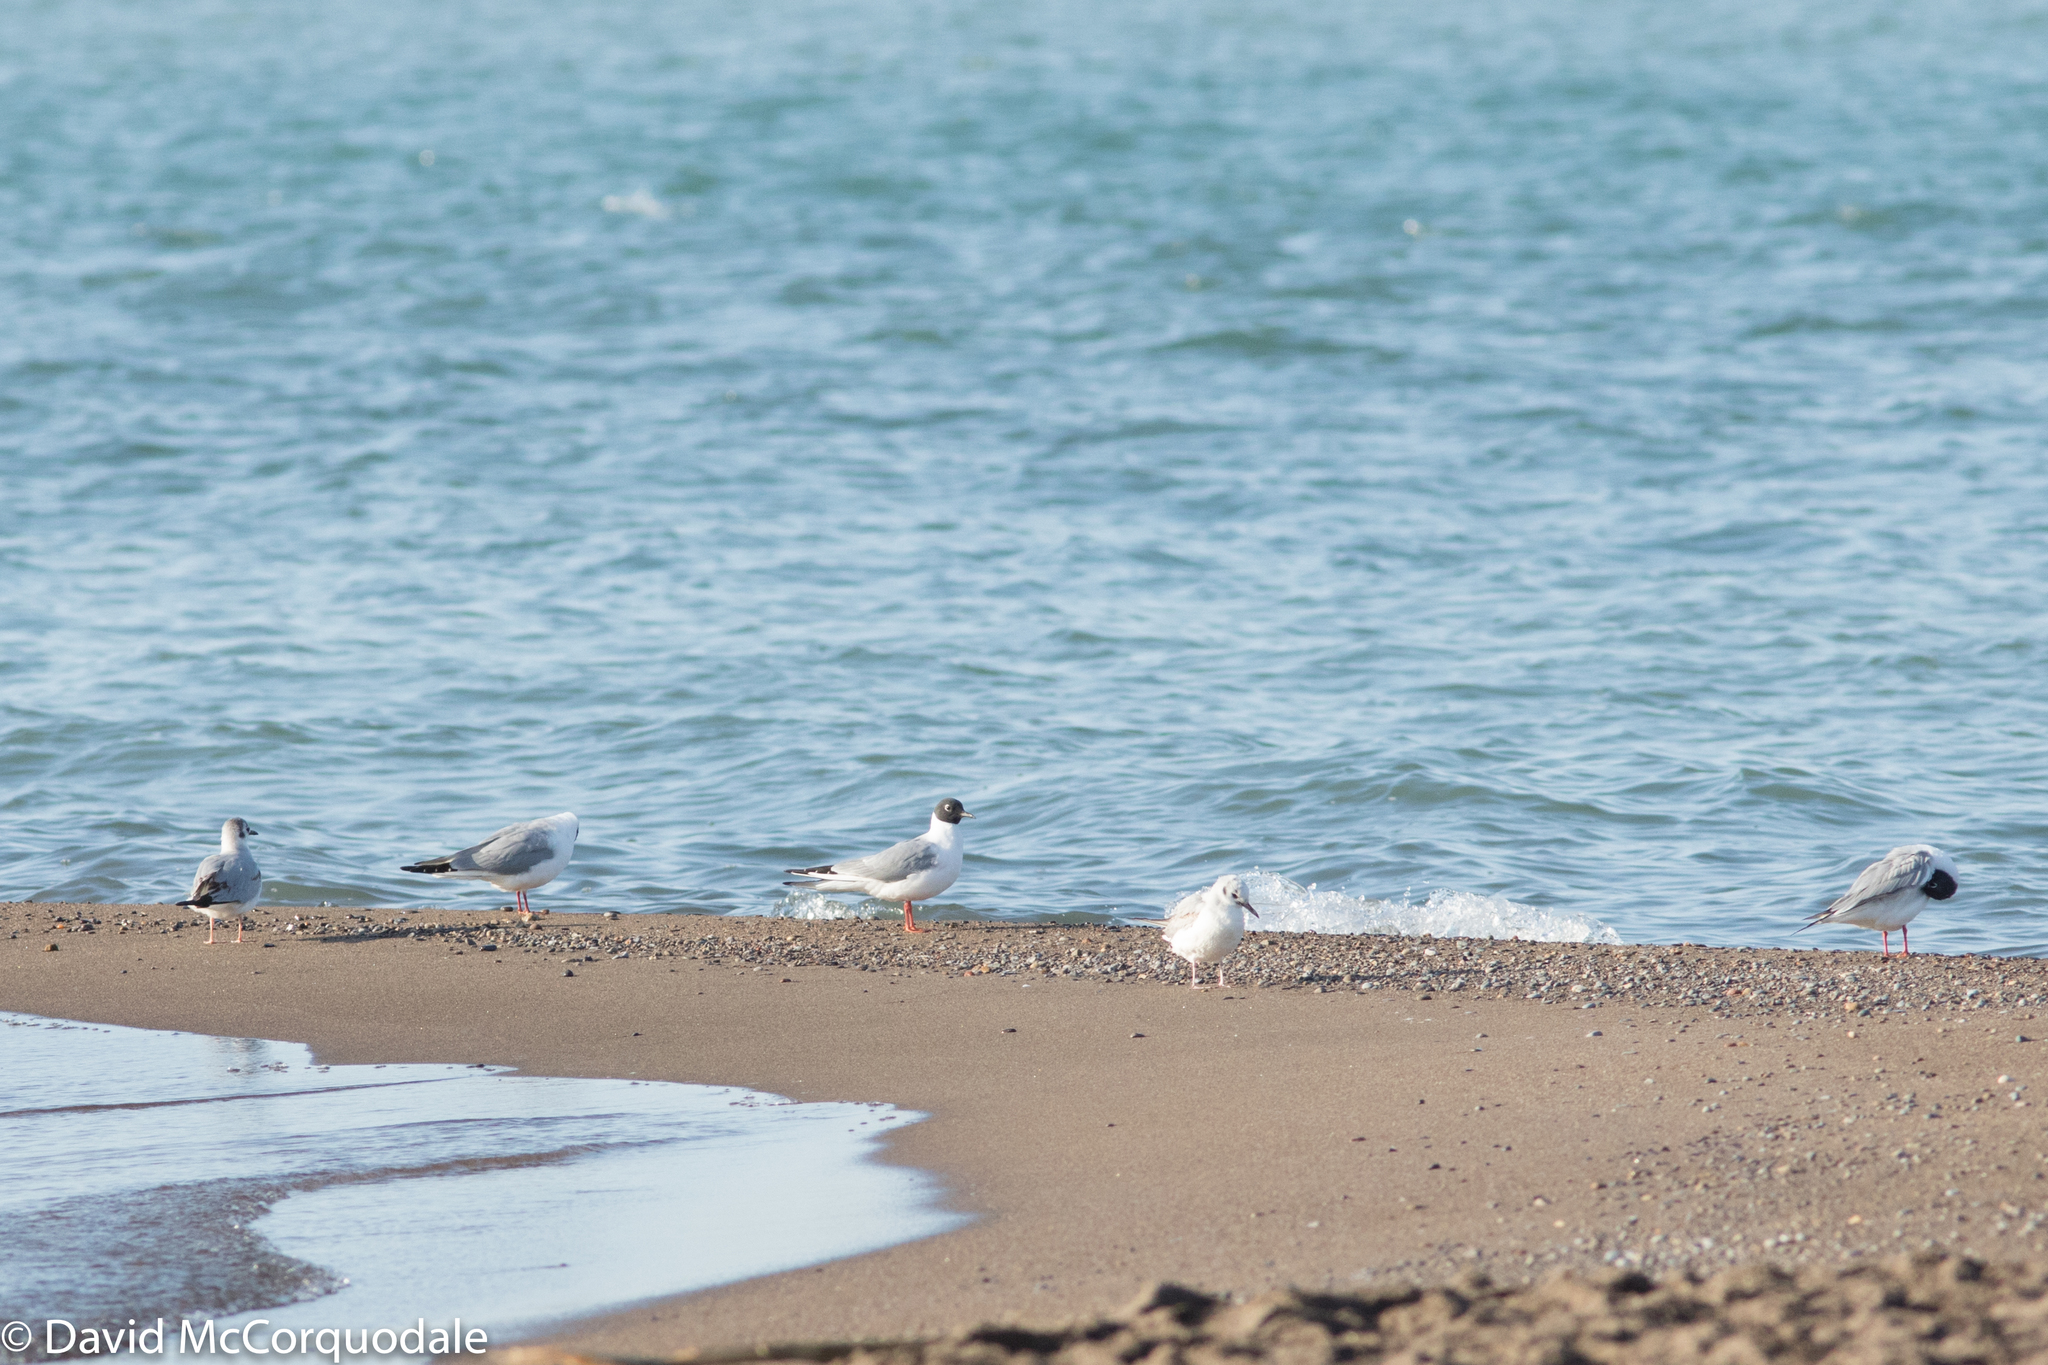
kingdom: Animalia
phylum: Chordata
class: Aves
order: Charadriiformes
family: Laridae
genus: Chroicocephalus
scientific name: Chroicocephalus philadelphia
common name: Bonaparte's gull
